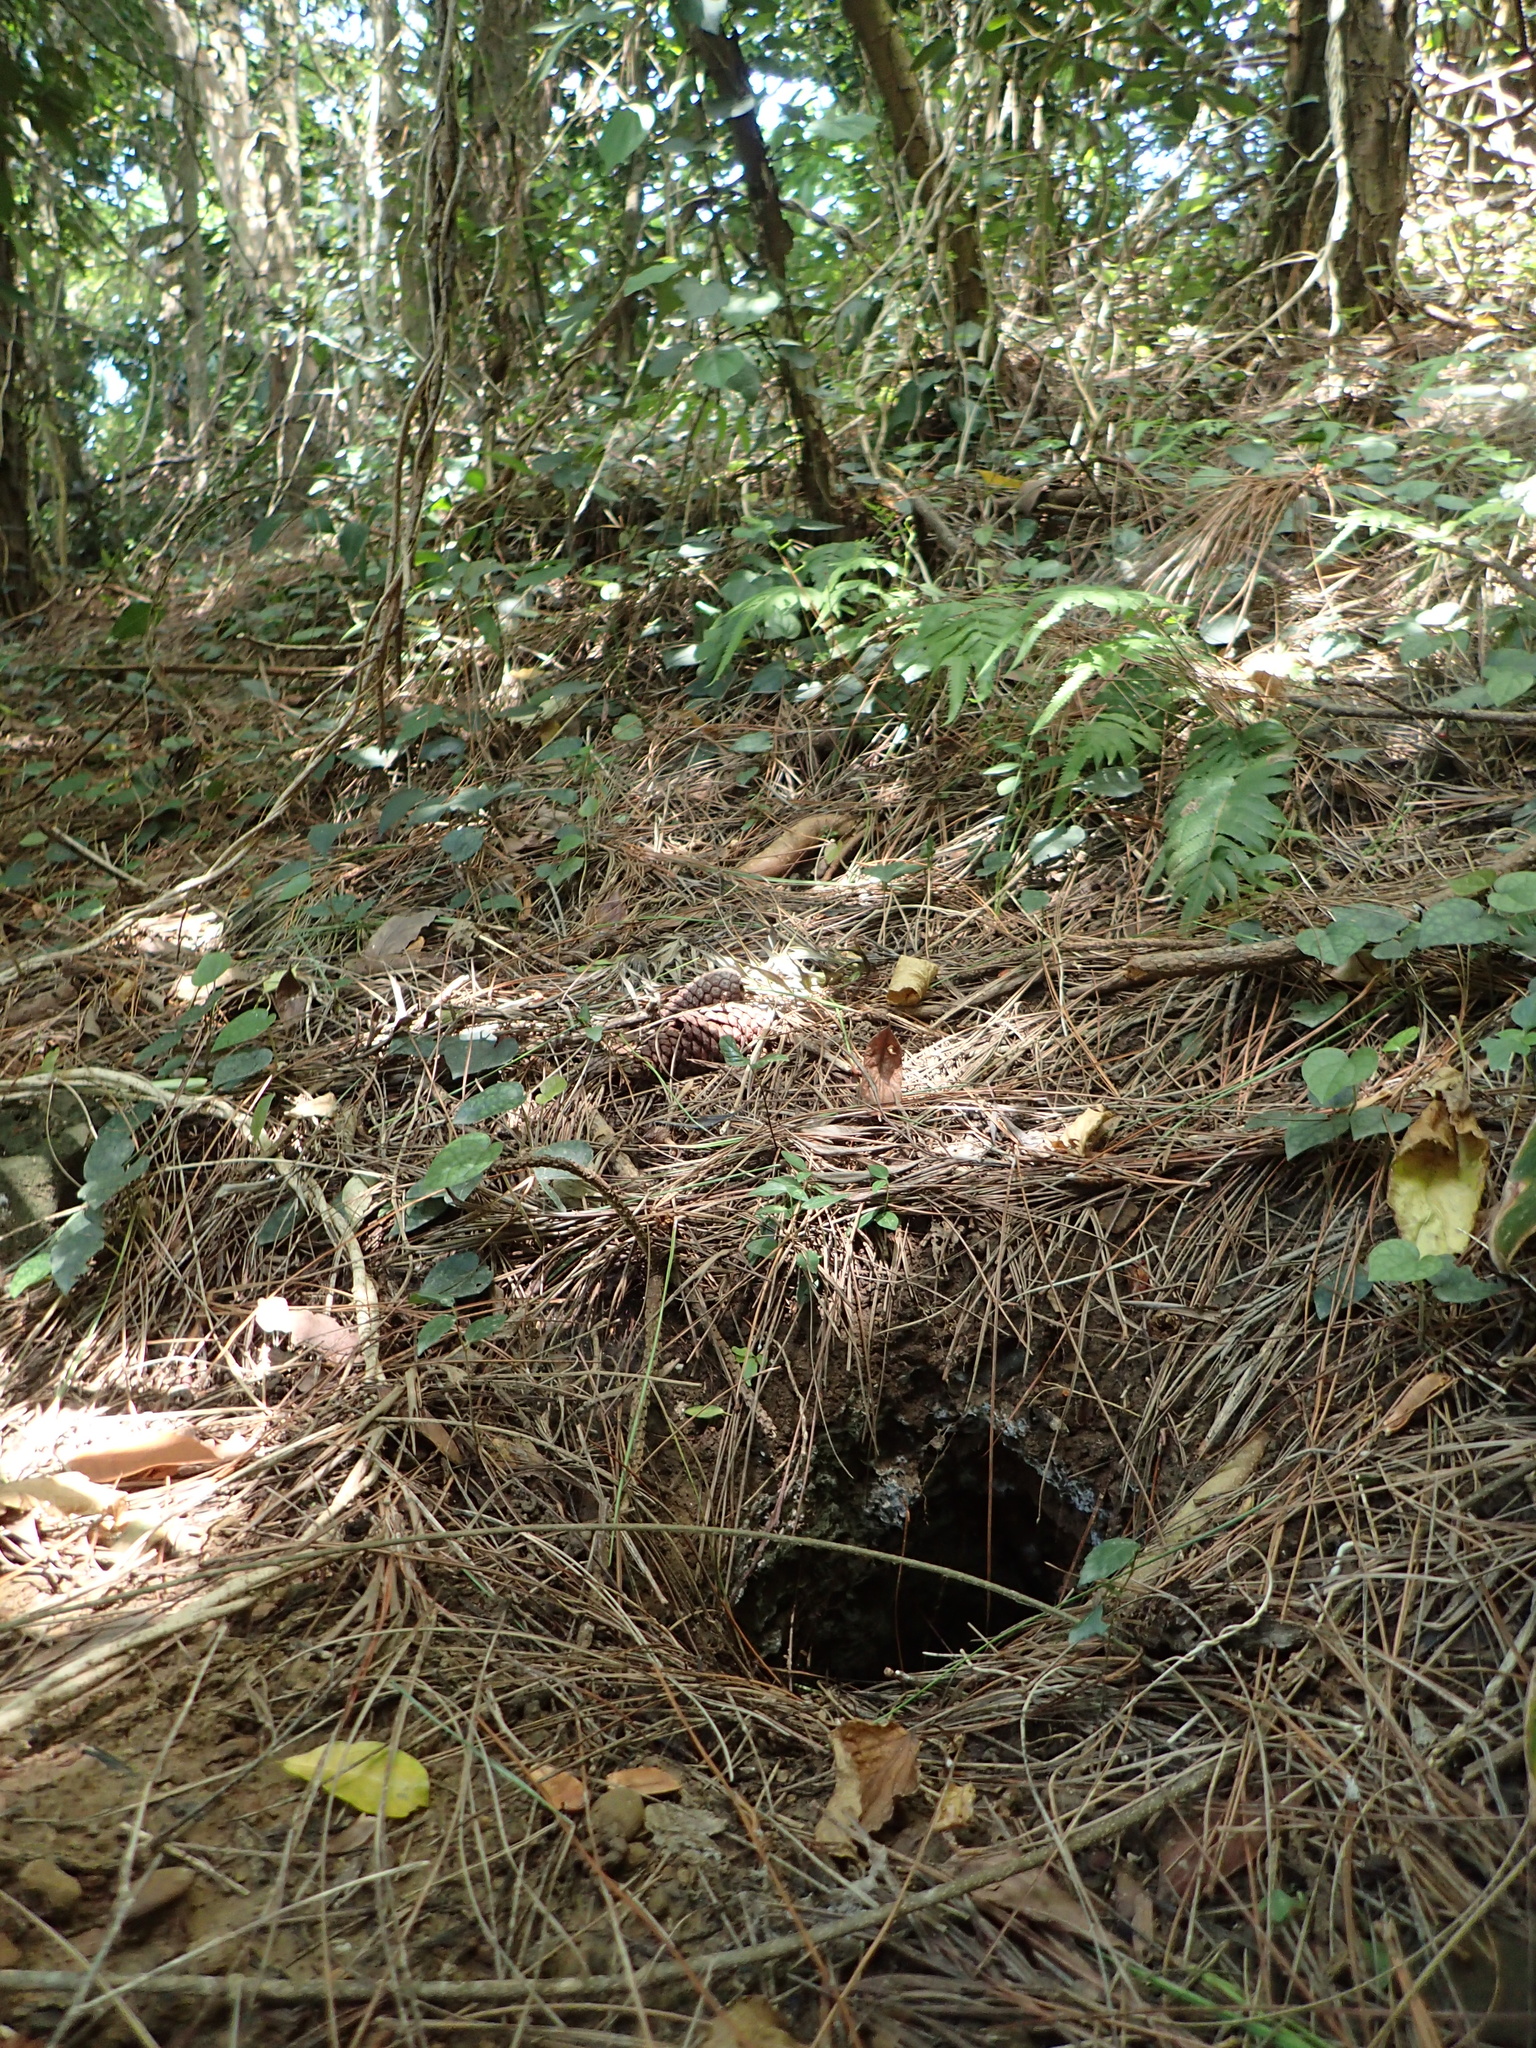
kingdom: Animalia
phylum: Chordata
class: Mammalia
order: Pholidota
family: Manidae
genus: Manis
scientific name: Manis pentadactyla
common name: Chinese pangolin
